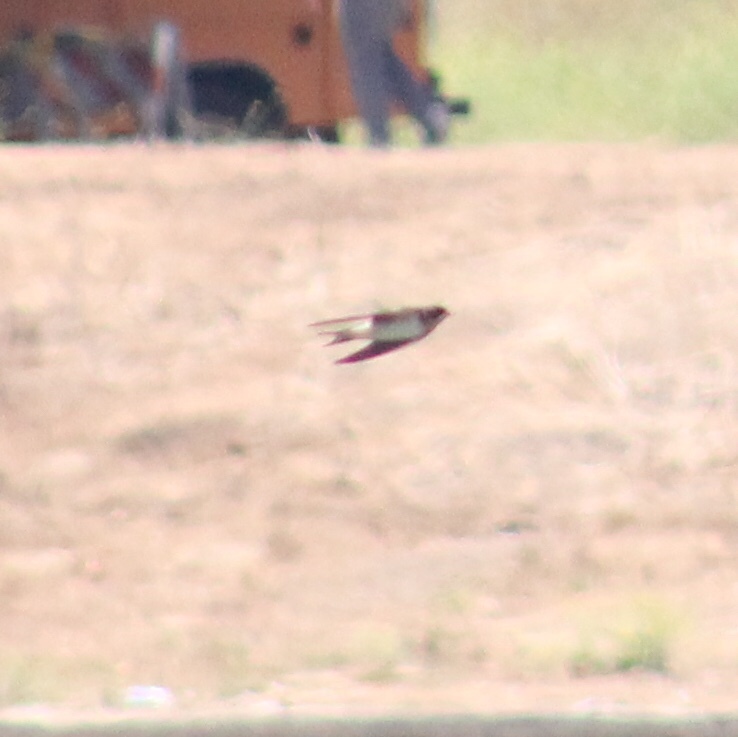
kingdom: Animalia
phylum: Chordata
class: Aves
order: Passeriformes
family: Hirundinidae
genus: Hirundo
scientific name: Hirundo rustica
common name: Barn swallow
